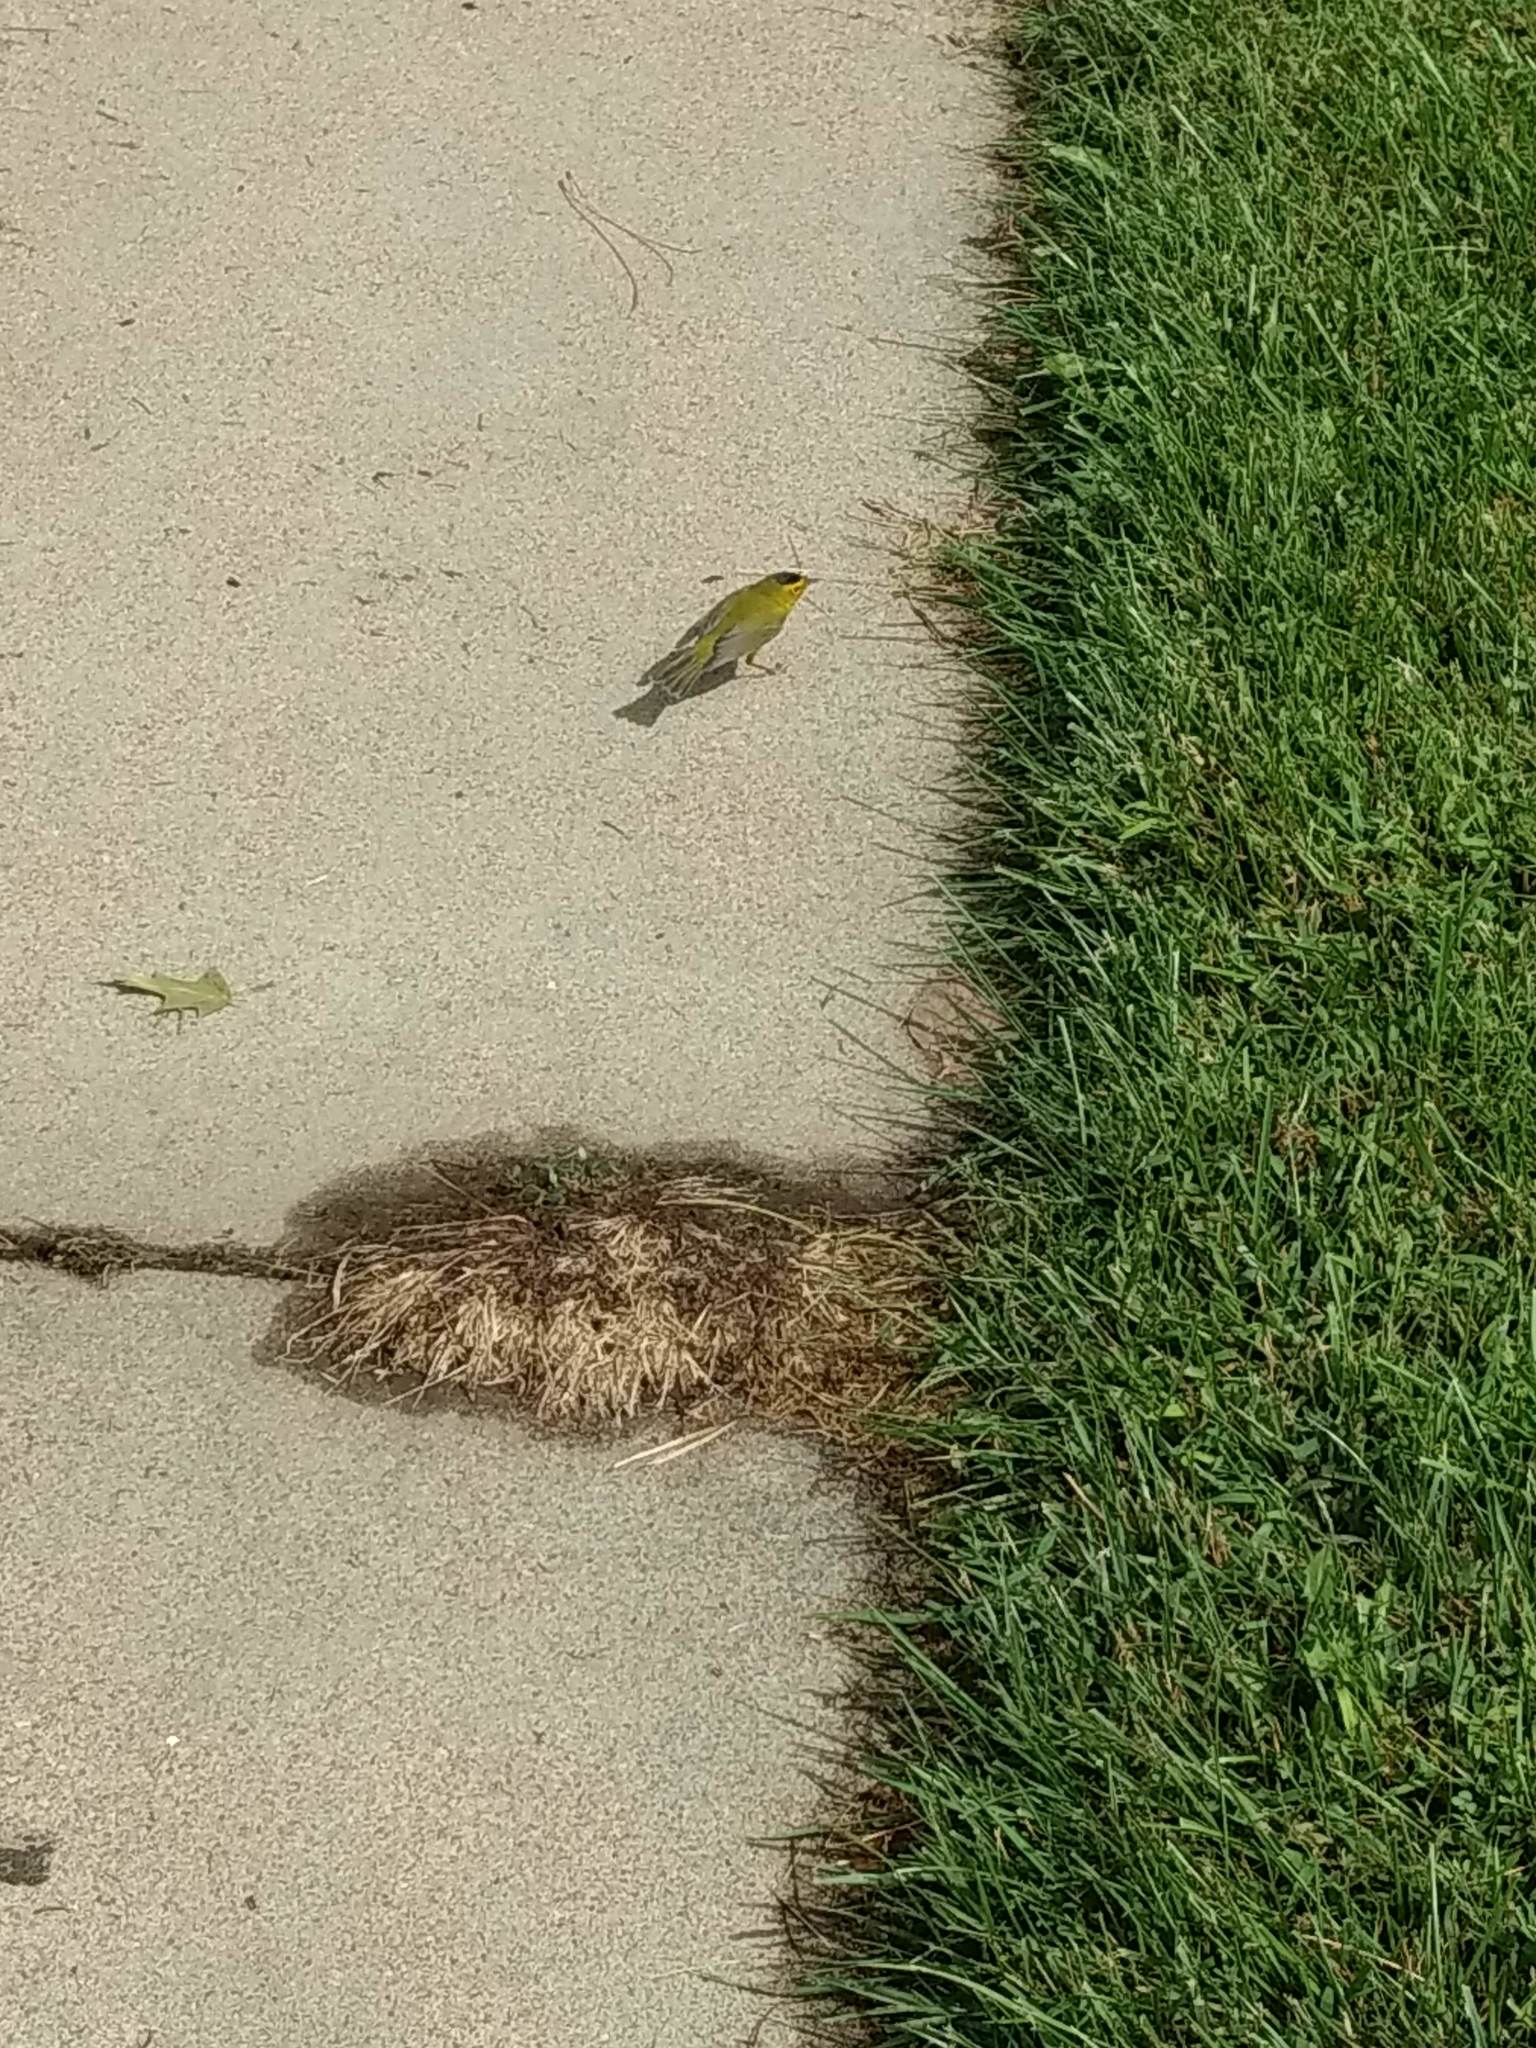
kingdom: Animalia
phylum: Chordata
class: Aves
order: Passeriformes
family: Parulidae
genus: Cardellina
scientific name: Cardellina pusilla
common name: Wilson's warbler
